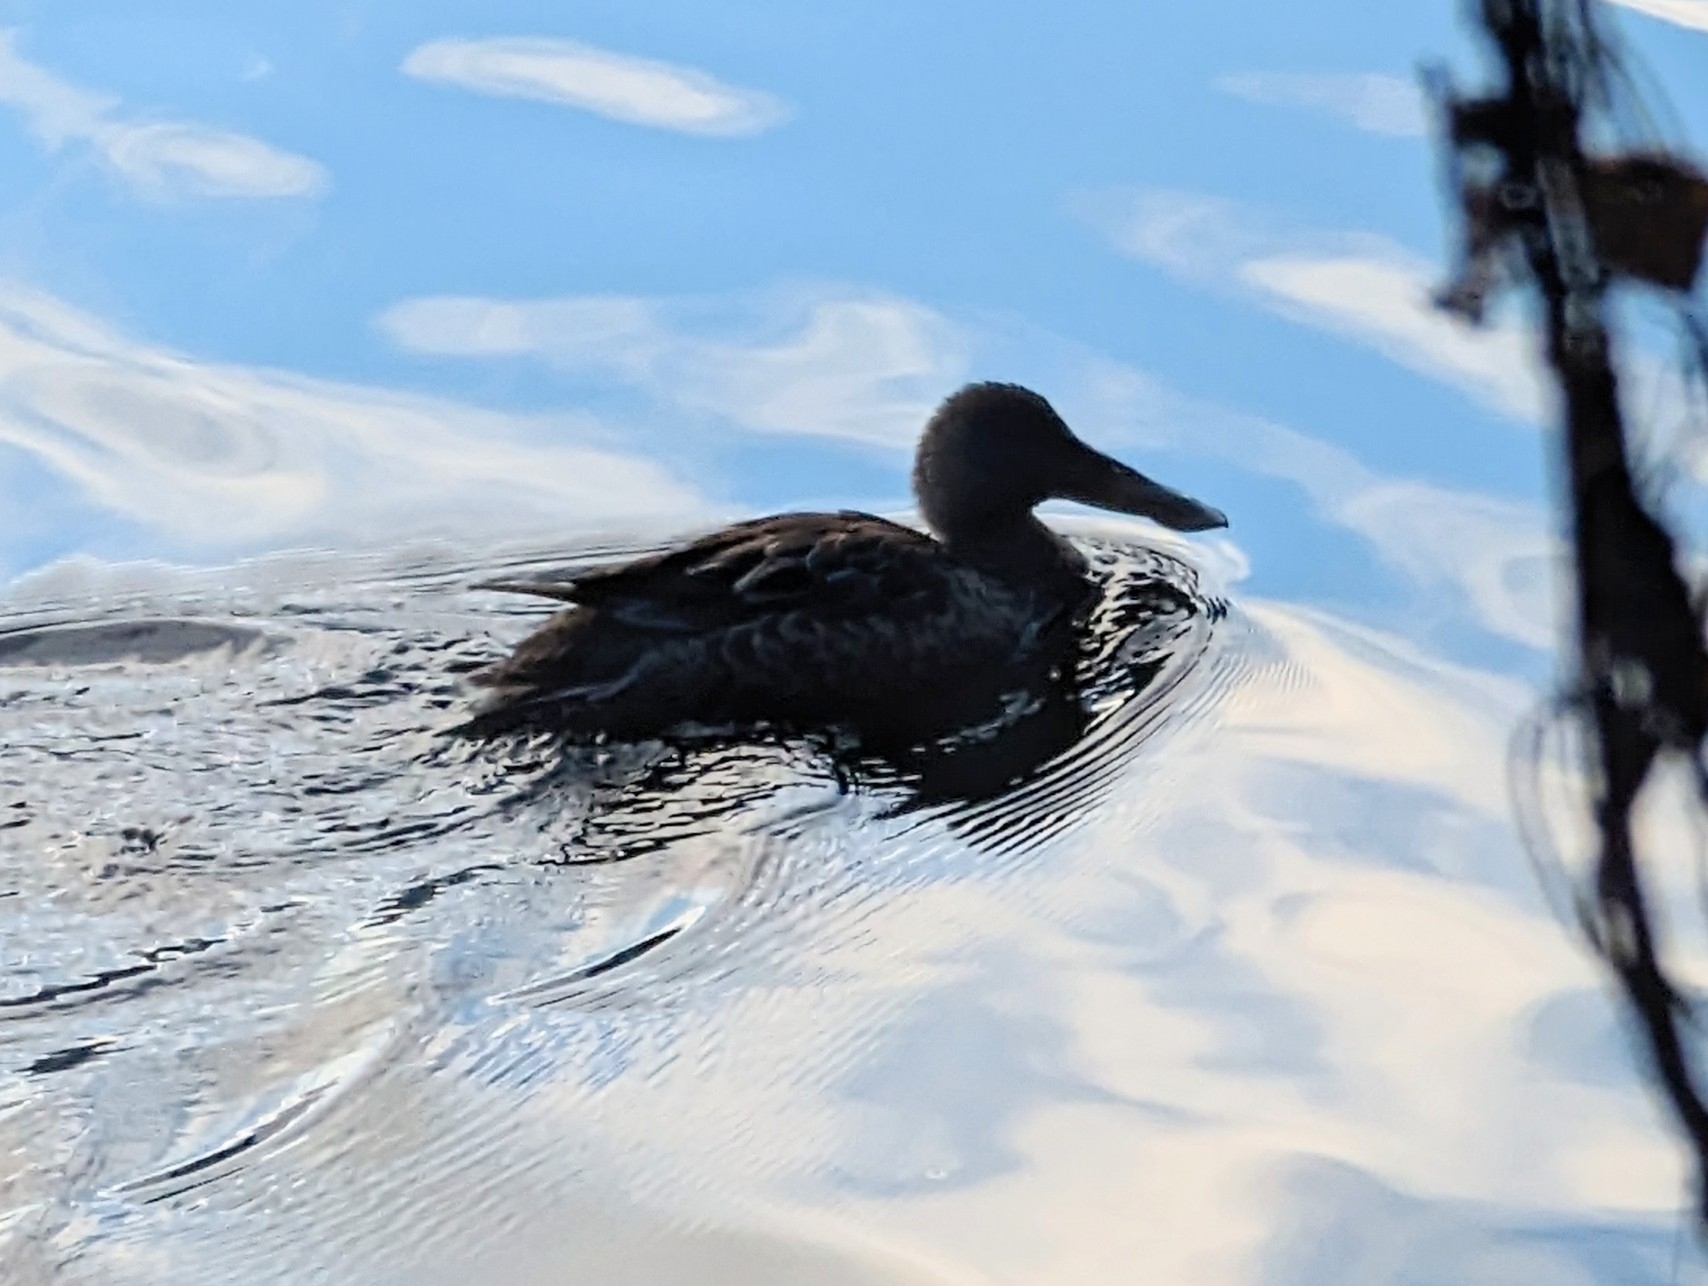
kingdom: Animalia
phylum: Chordata
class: Aves
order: Anseriformes
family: Anatidae
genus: Spatula
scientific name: Spatula clypeata
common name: Northern shoveler
